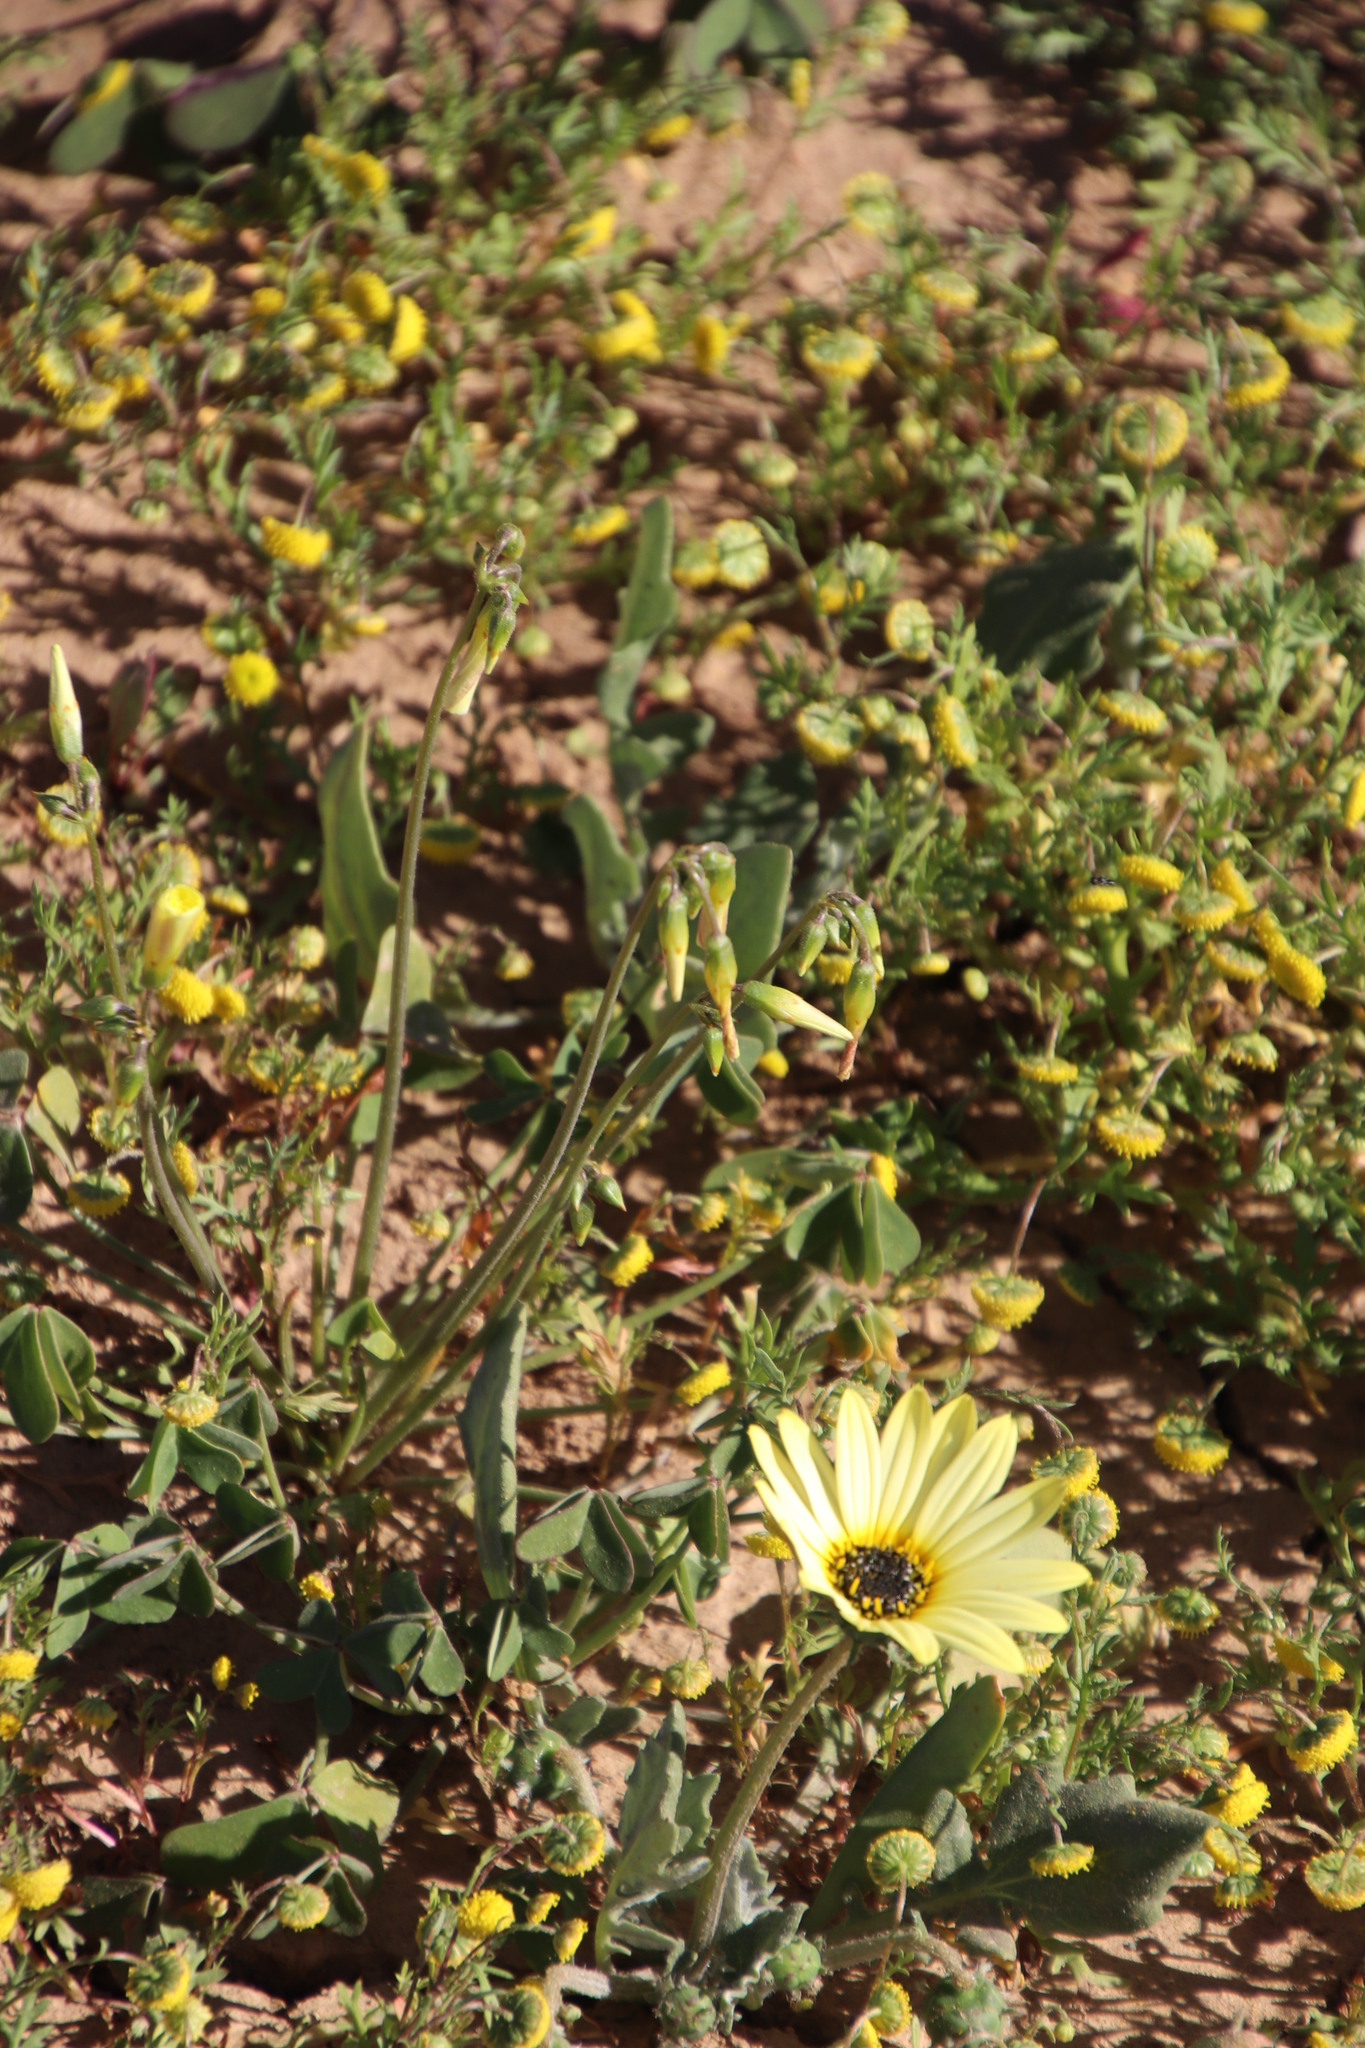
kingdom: Plantae
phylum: Tracheophyta
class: Magnoliopsida
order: Oxalidales
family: Oxalidaceae
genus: Oxalis
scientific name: Oxalis pes-caprae
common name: Bermuda-buttercup
